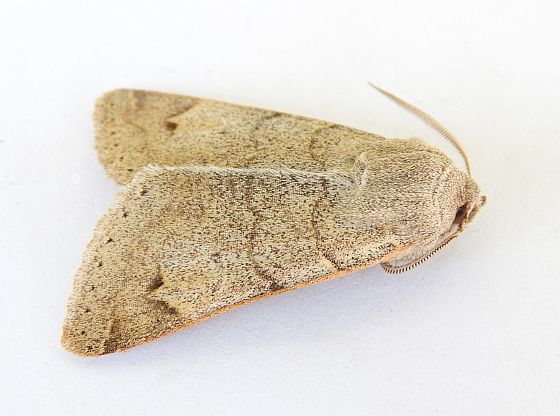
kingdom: Animalia
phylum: Arthropoda
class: Insecta
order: Lepidoptera
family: Erebidae
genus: Ulosyneda
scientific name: Ulosyneda valens
